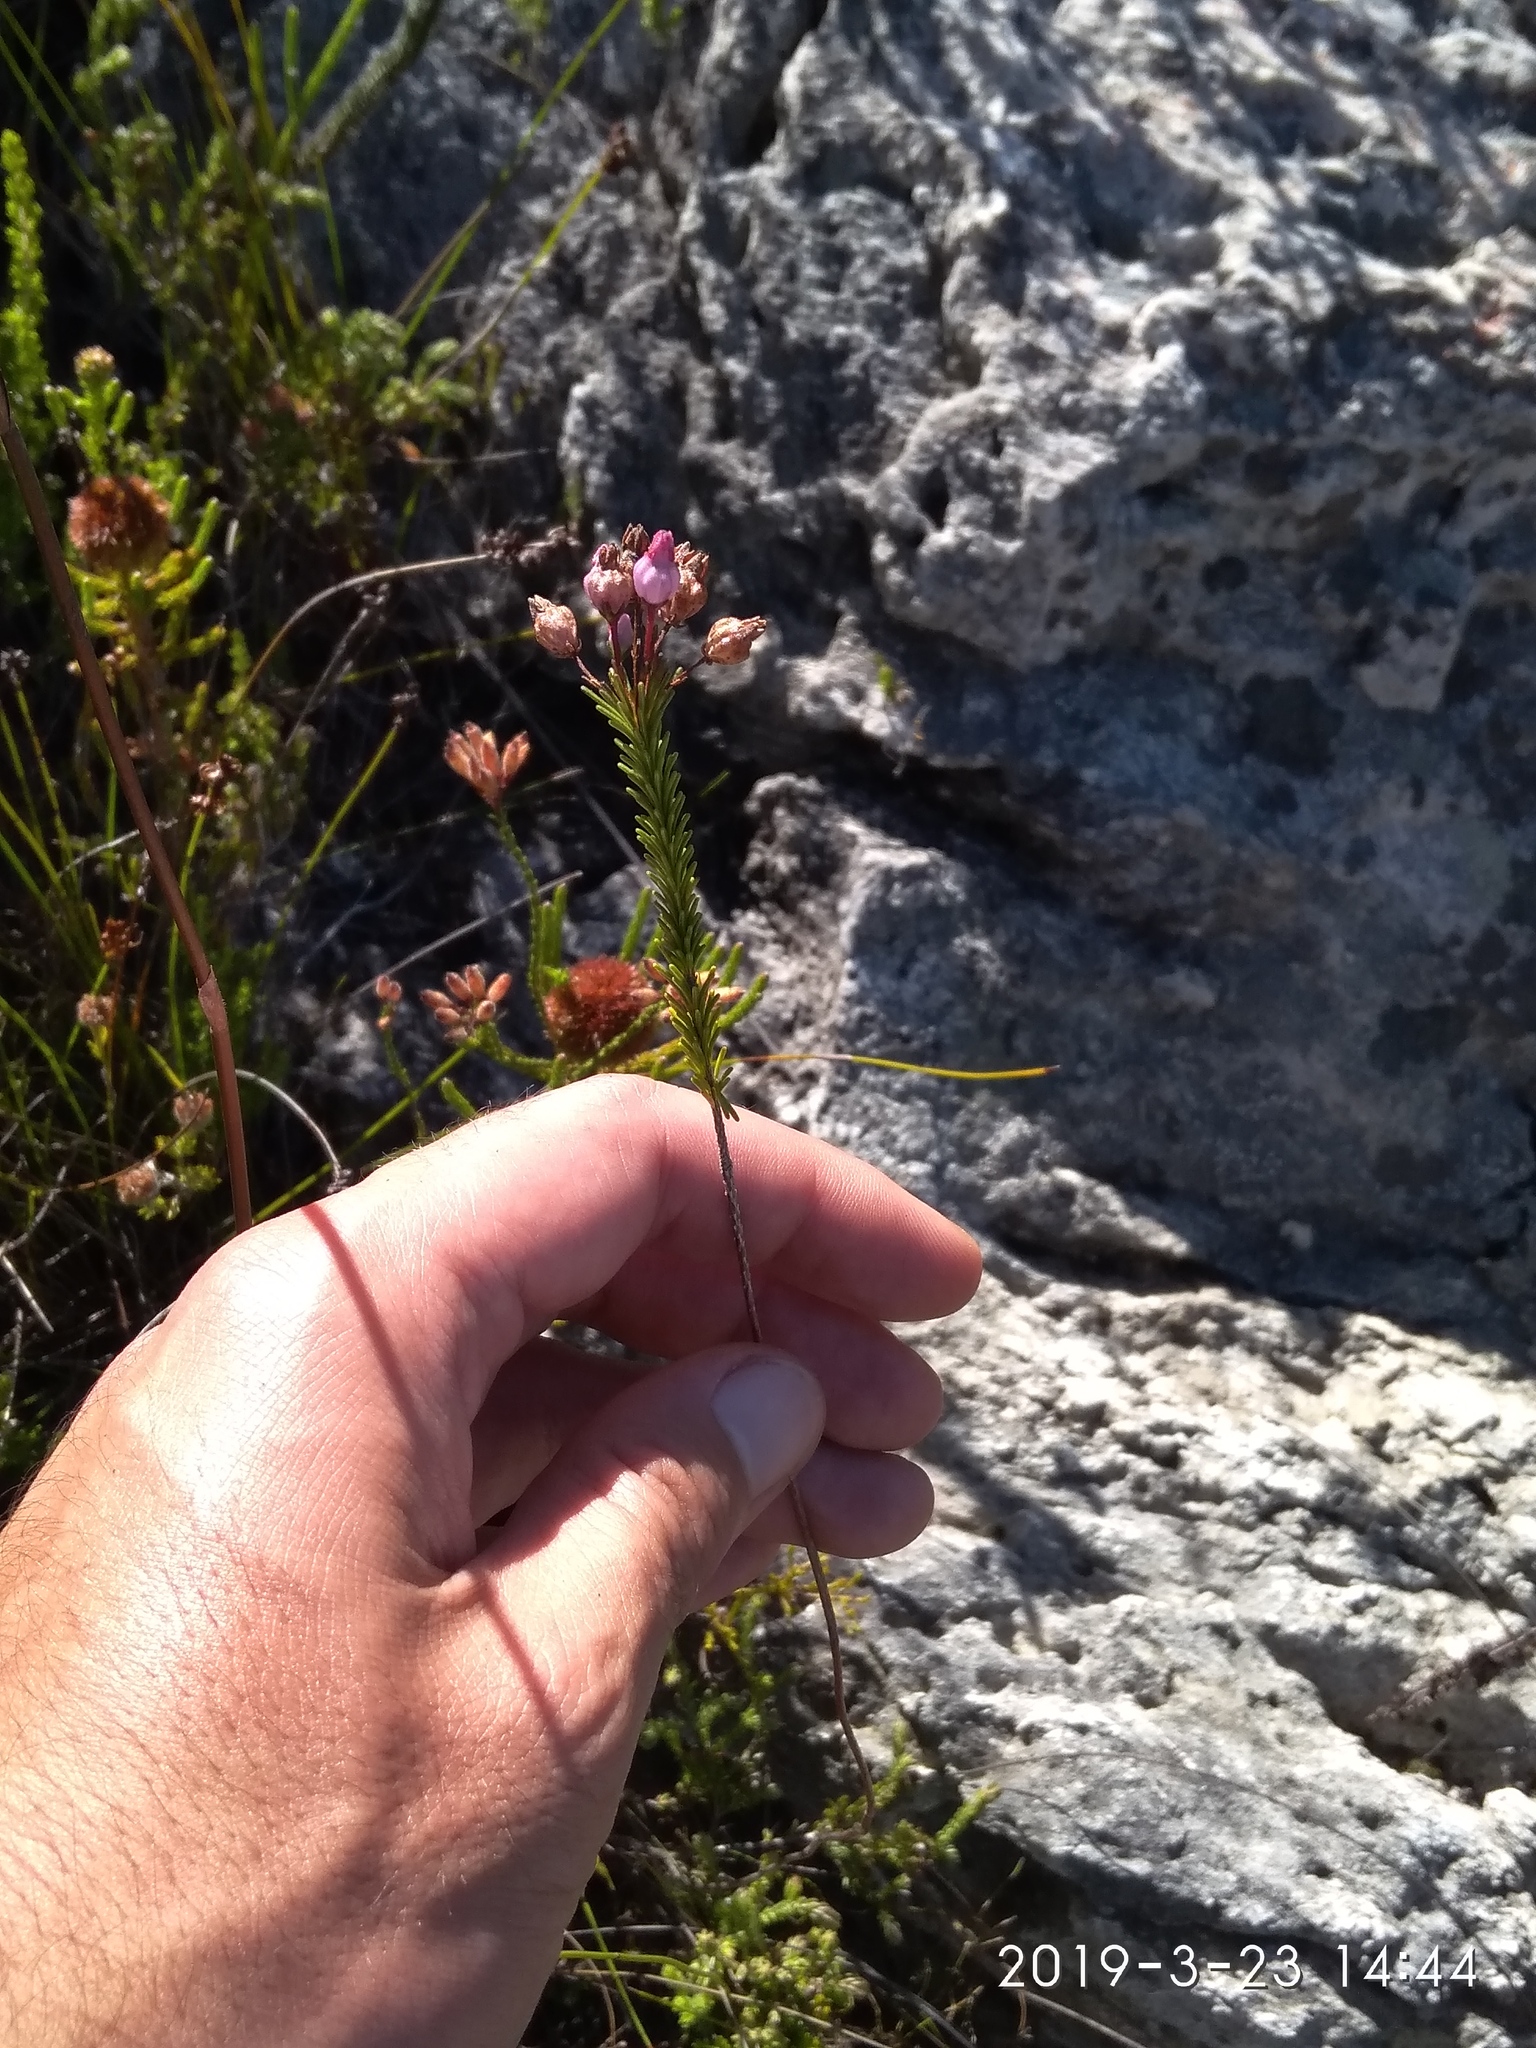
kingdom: Plantae
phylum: Tracheophyta
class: Magnoliopsida
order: Ericales
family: Ericaceae
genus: Erica
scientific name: Erica obliqua
